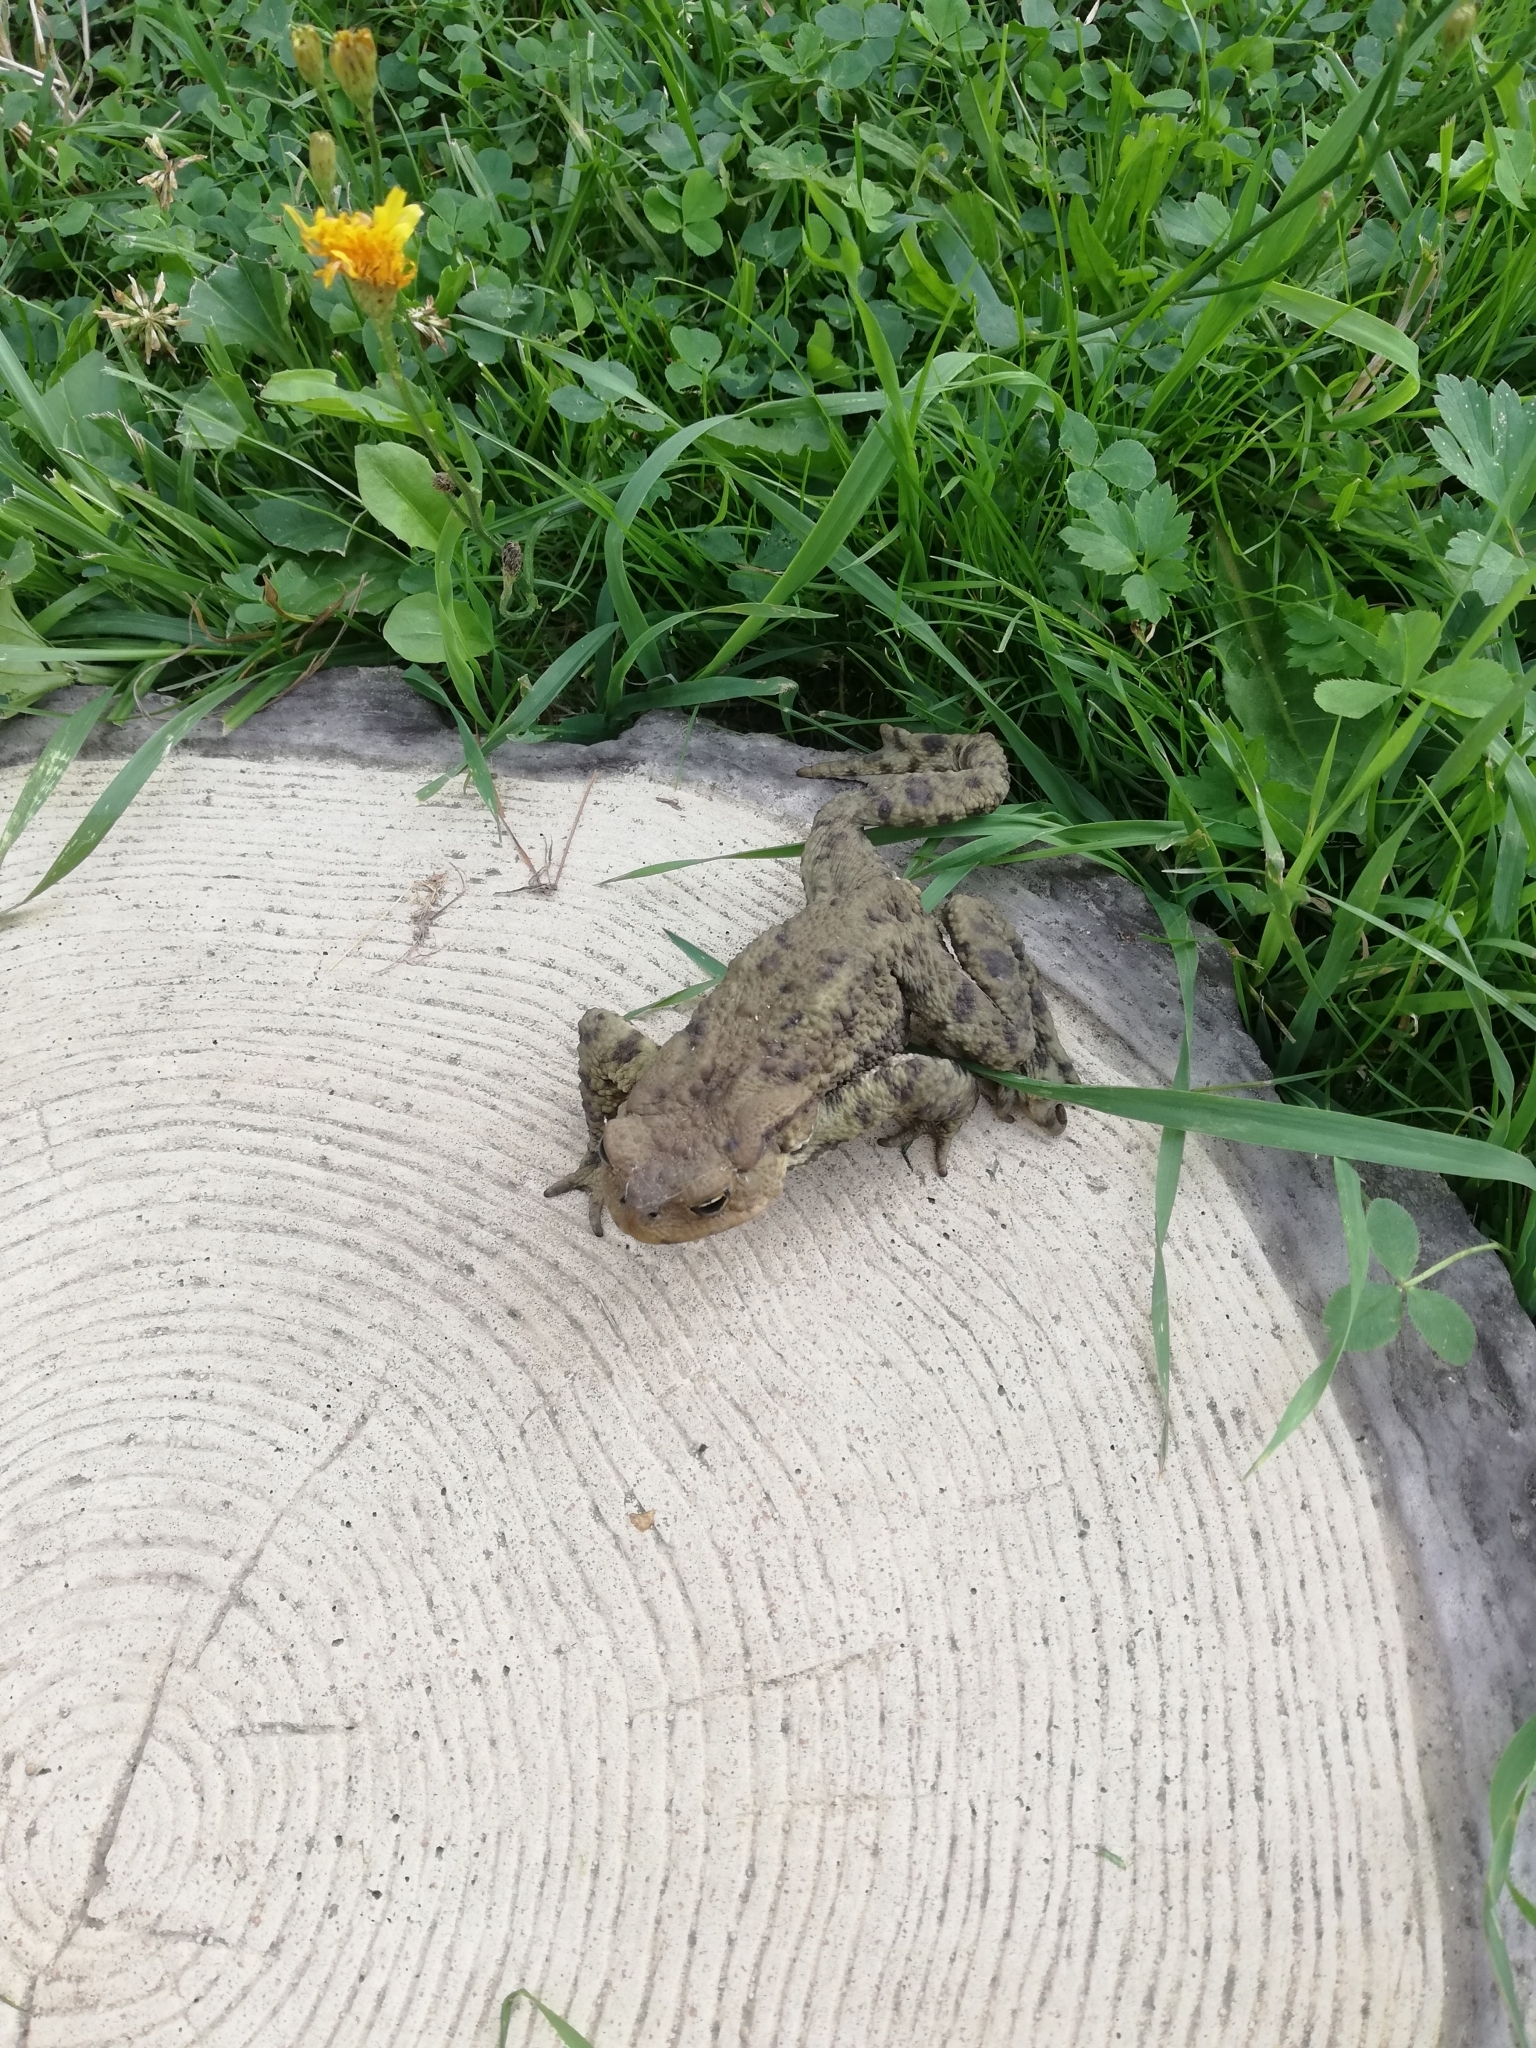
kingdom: Animalia
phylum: Chordata
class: Amphibia
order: Anura
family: Bufonidae
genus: Bufo
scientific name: Bufo bufo
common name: Common toad
